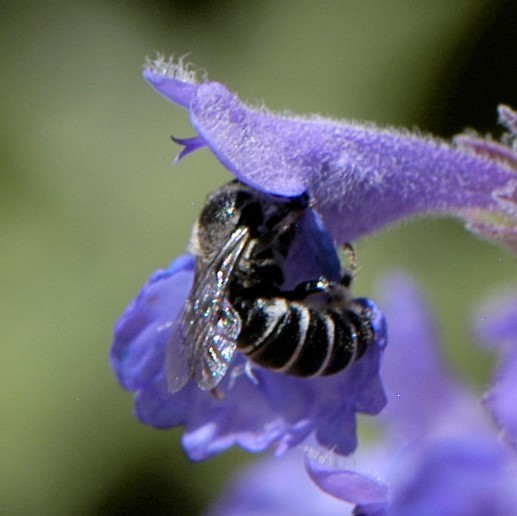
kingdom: Animalia
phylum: Arthropoda
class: Insecta
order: Hymenoptera
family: Megachilidae
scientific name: Megachilidae
